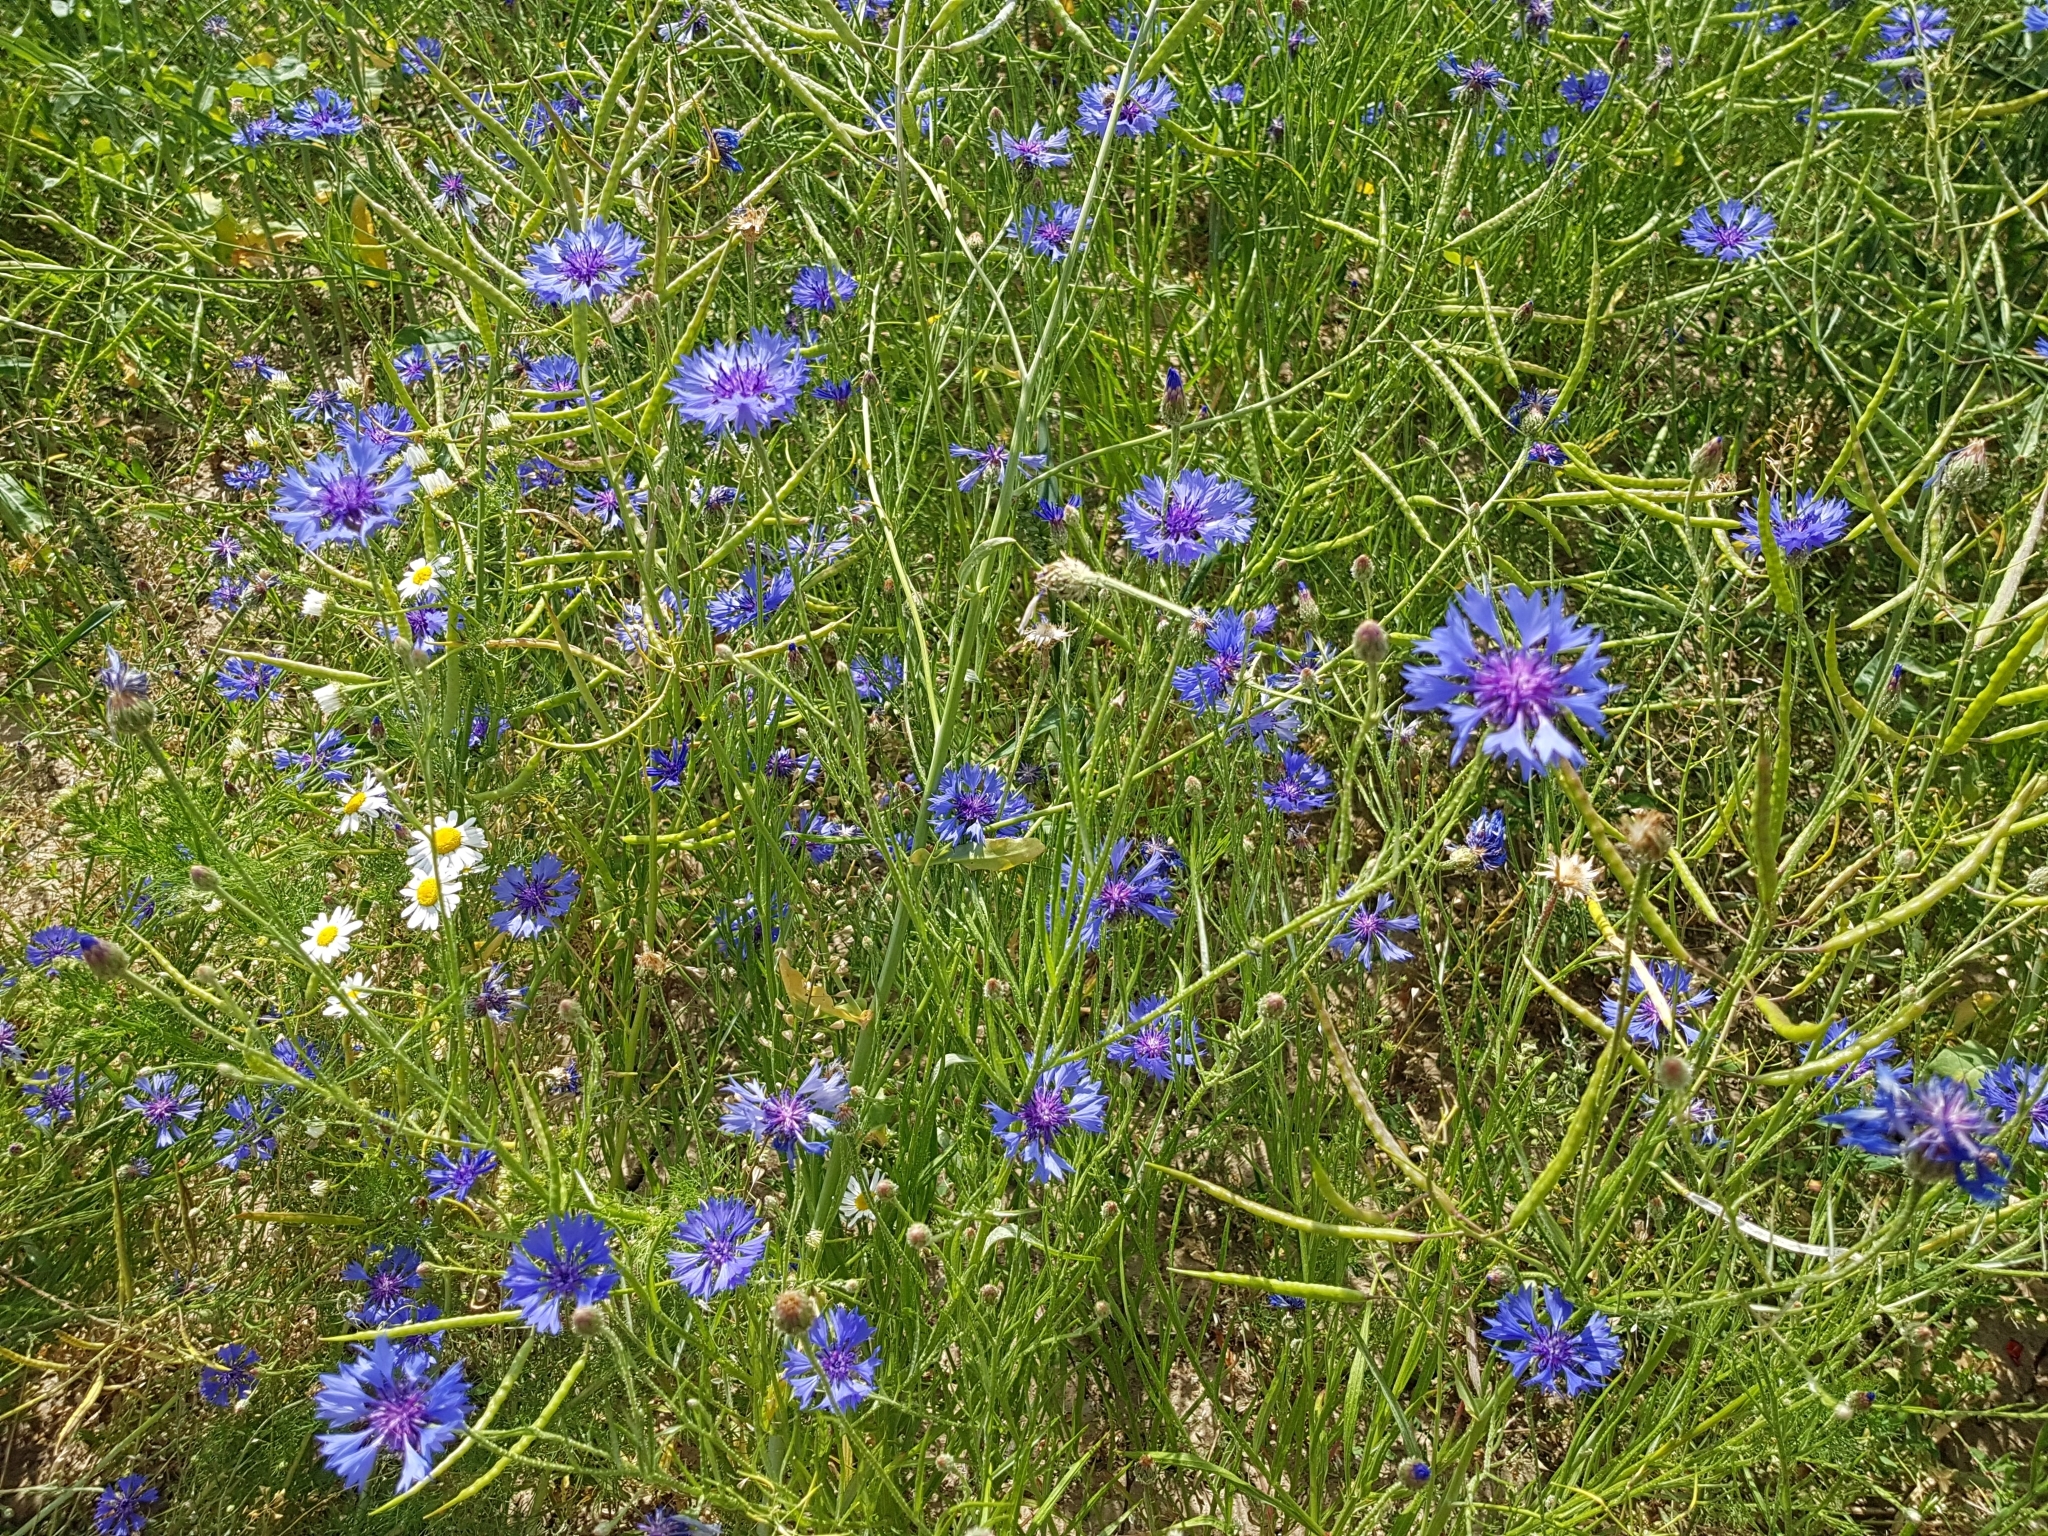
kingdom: Plantae
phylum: Tracheophyta
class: Magnoliopsida
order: Asterales
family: Asteraceae
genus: Centaurea
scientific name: Centaurea cyanus
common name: Cornflower
